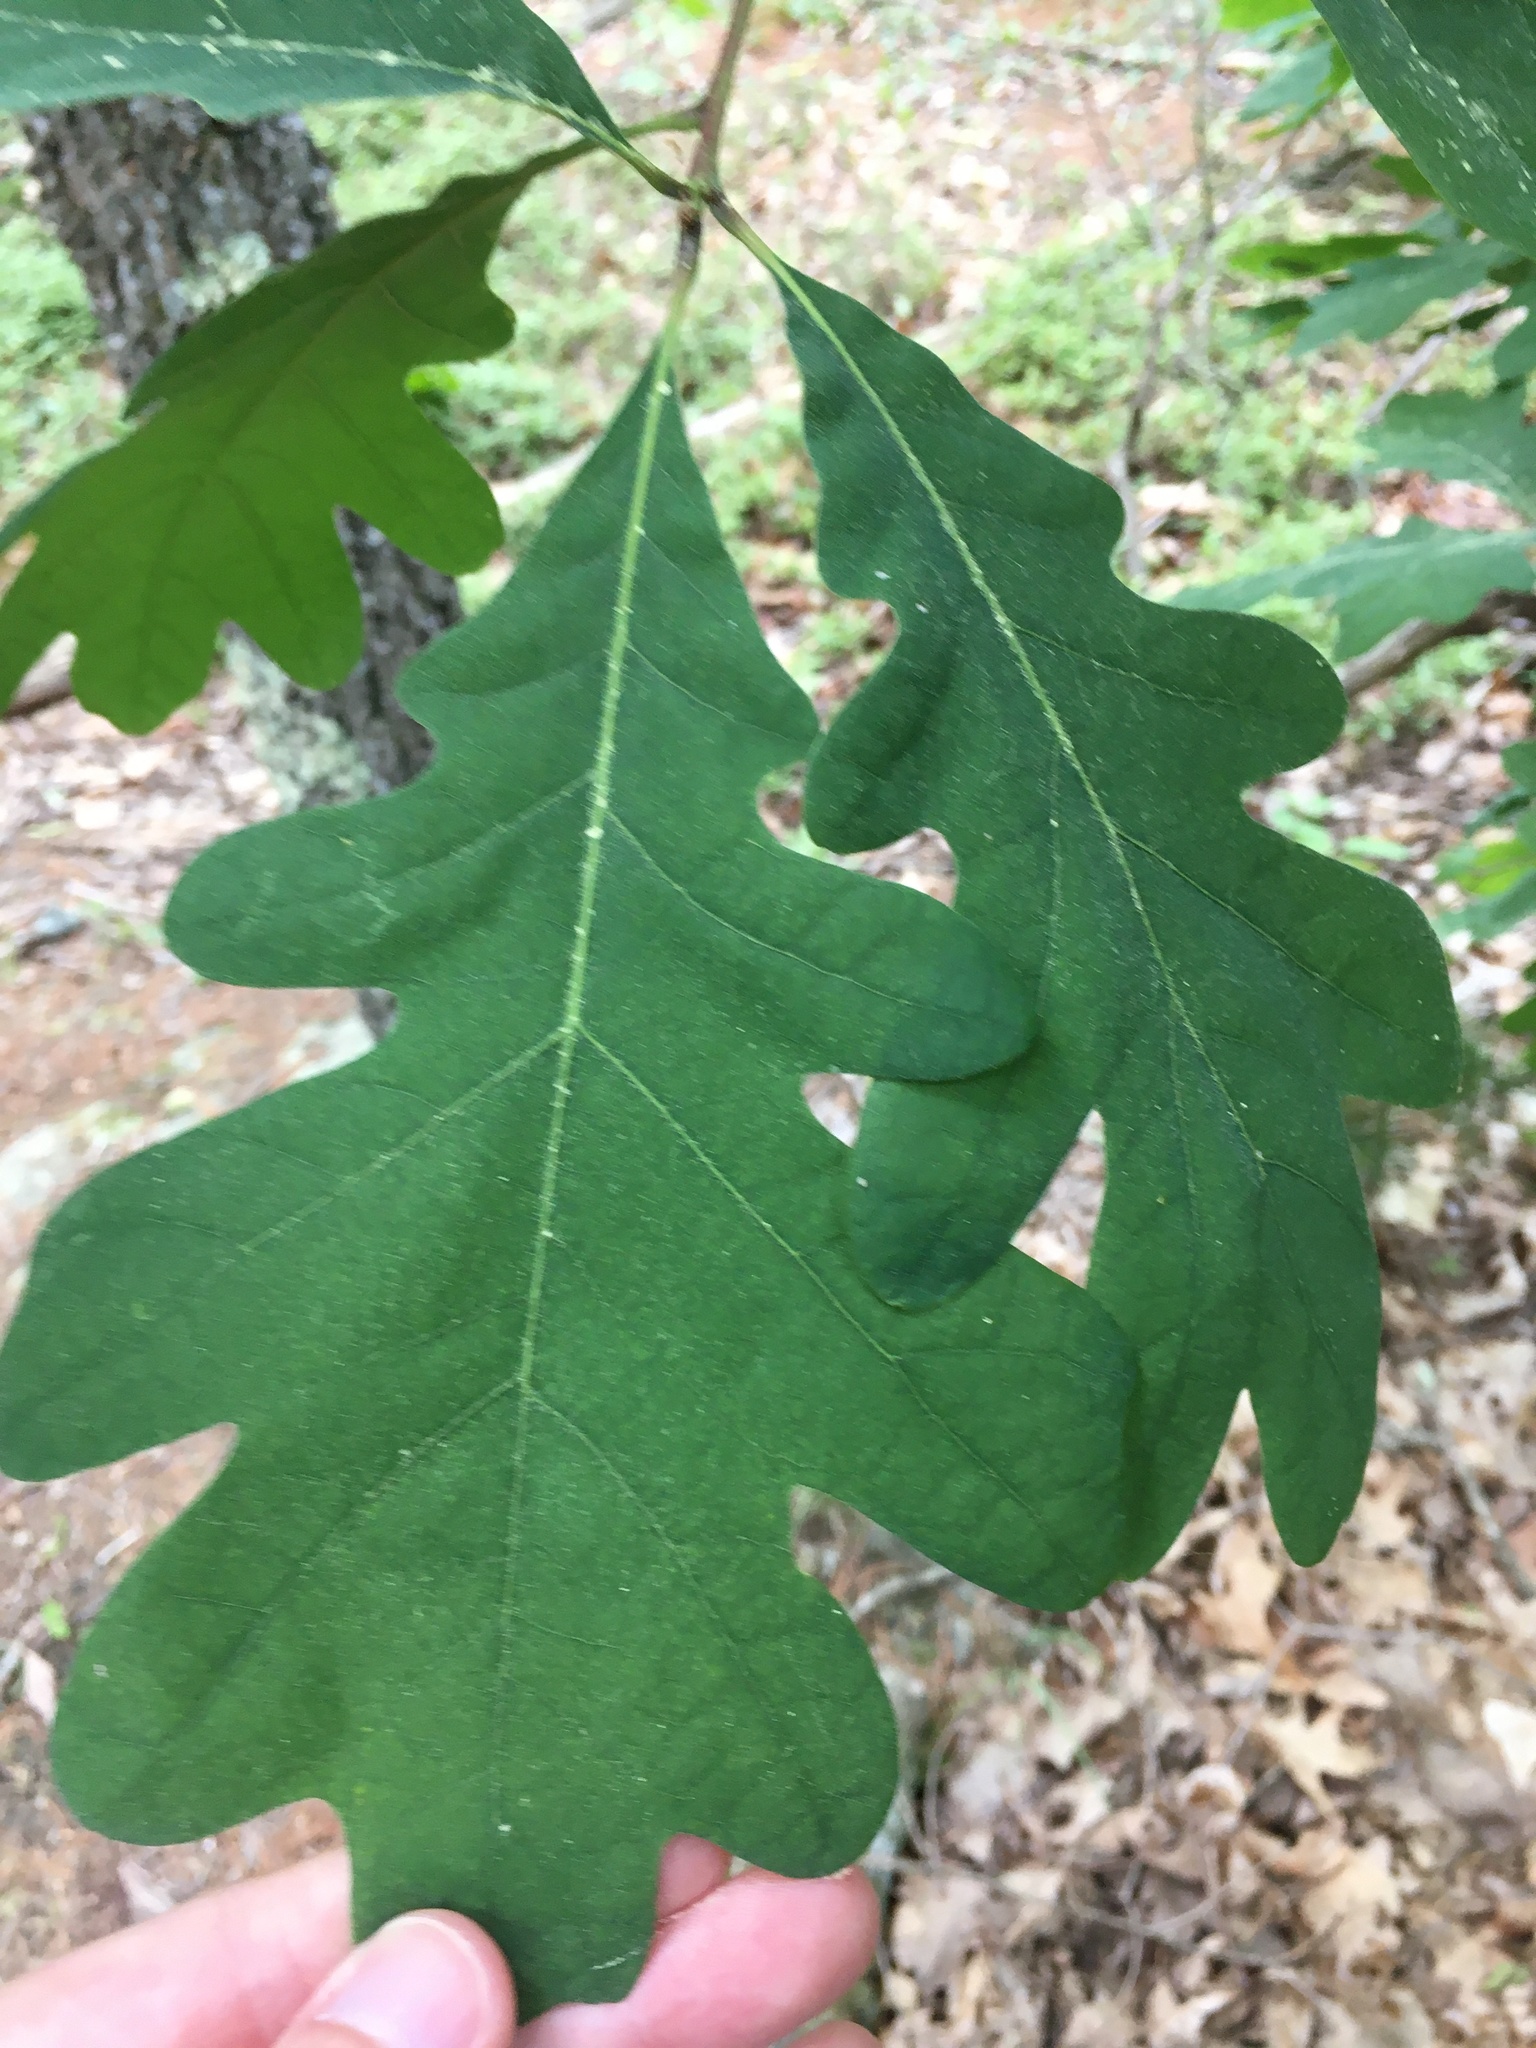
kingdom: Plantae
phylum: Tracheophyta
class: Magnoliopsida
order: Fagales
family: Fagaceae
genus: Quercus
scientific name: Quercus alba
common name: White oak
